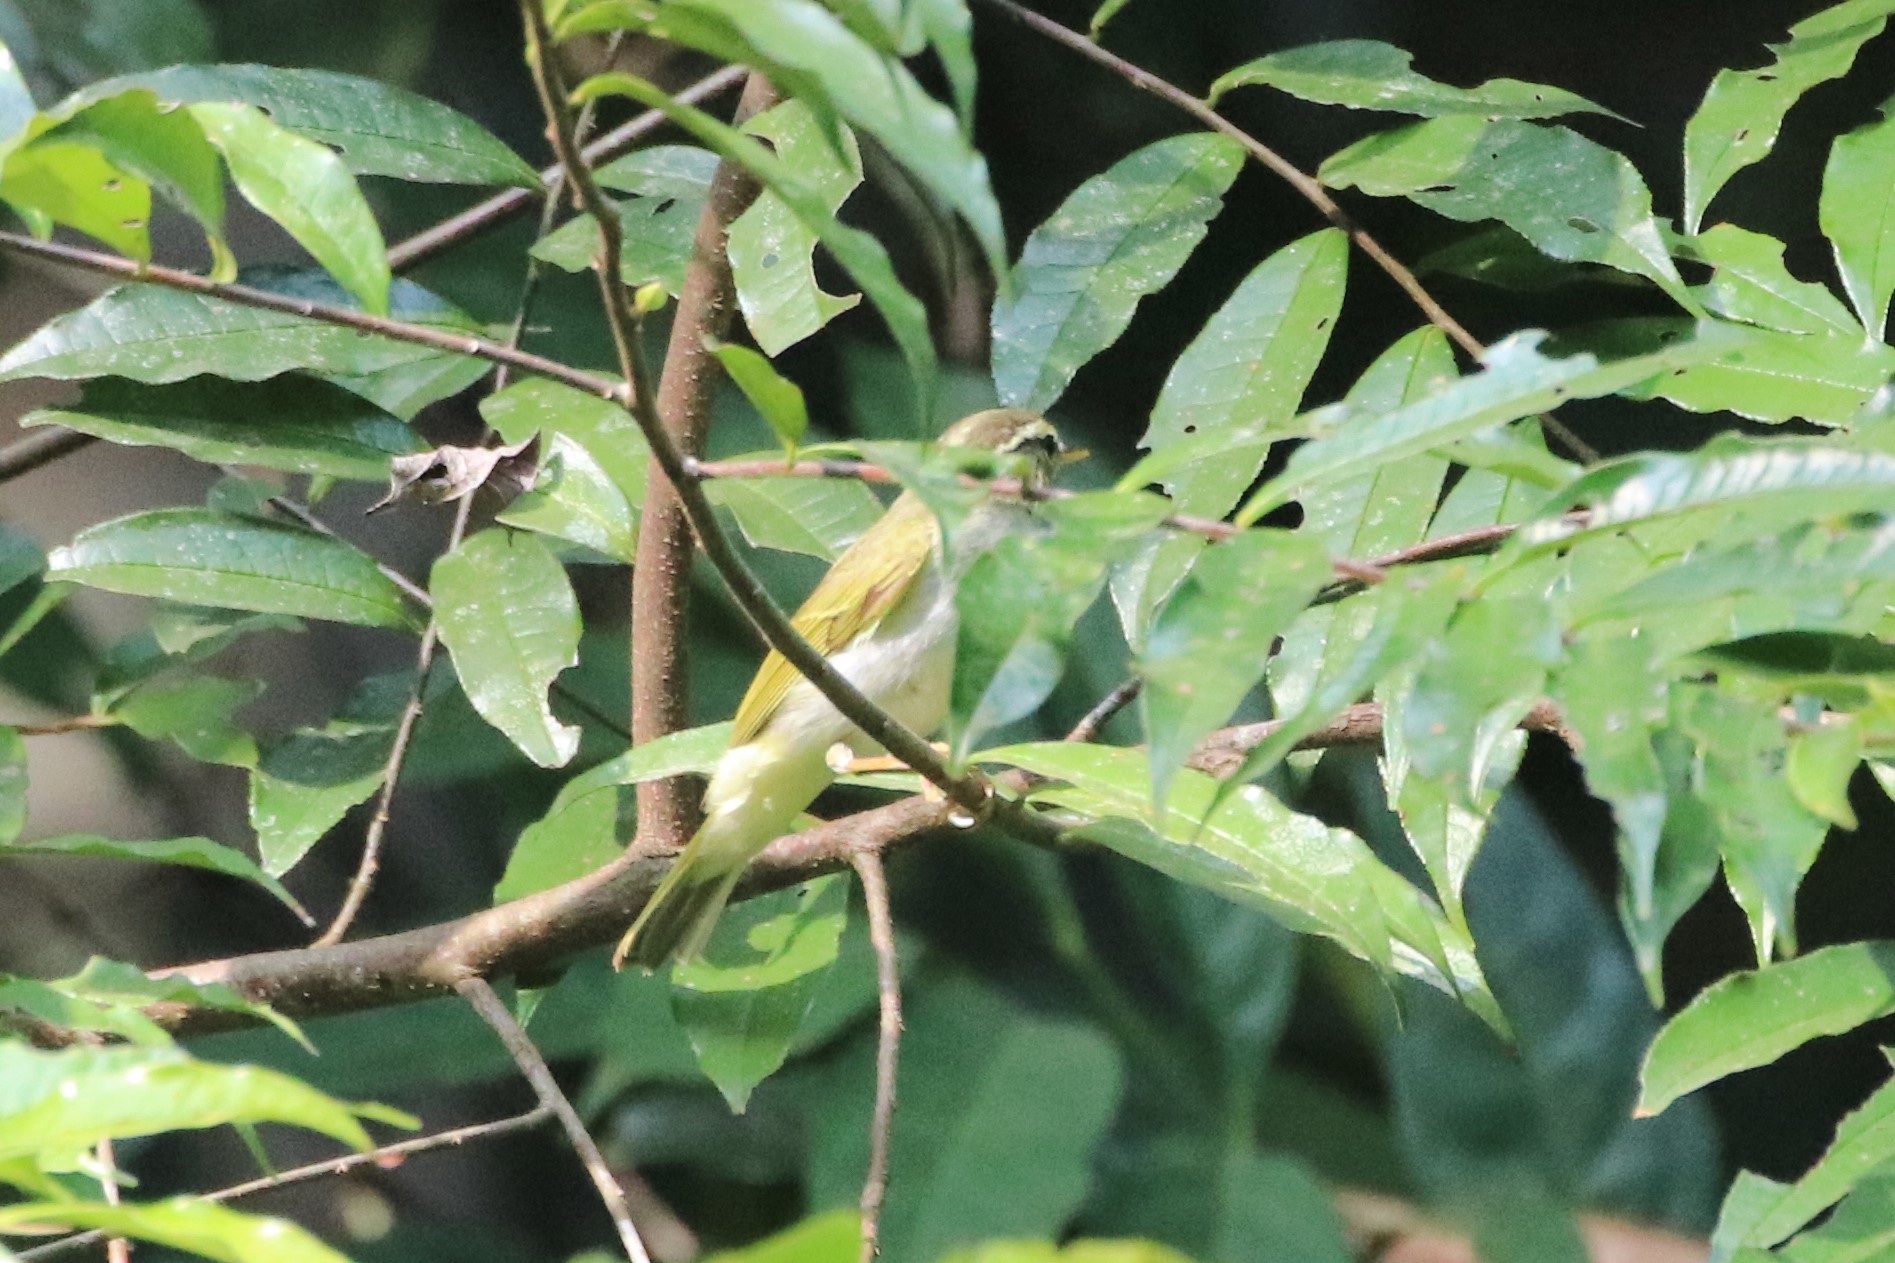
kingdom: Animalia
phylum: Chordata
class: Aves
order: Passeriformes
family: Phylloscopidae
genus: Phylloscopus
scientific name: Phylloscopus coronatus
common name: Eastern crowned warbler
